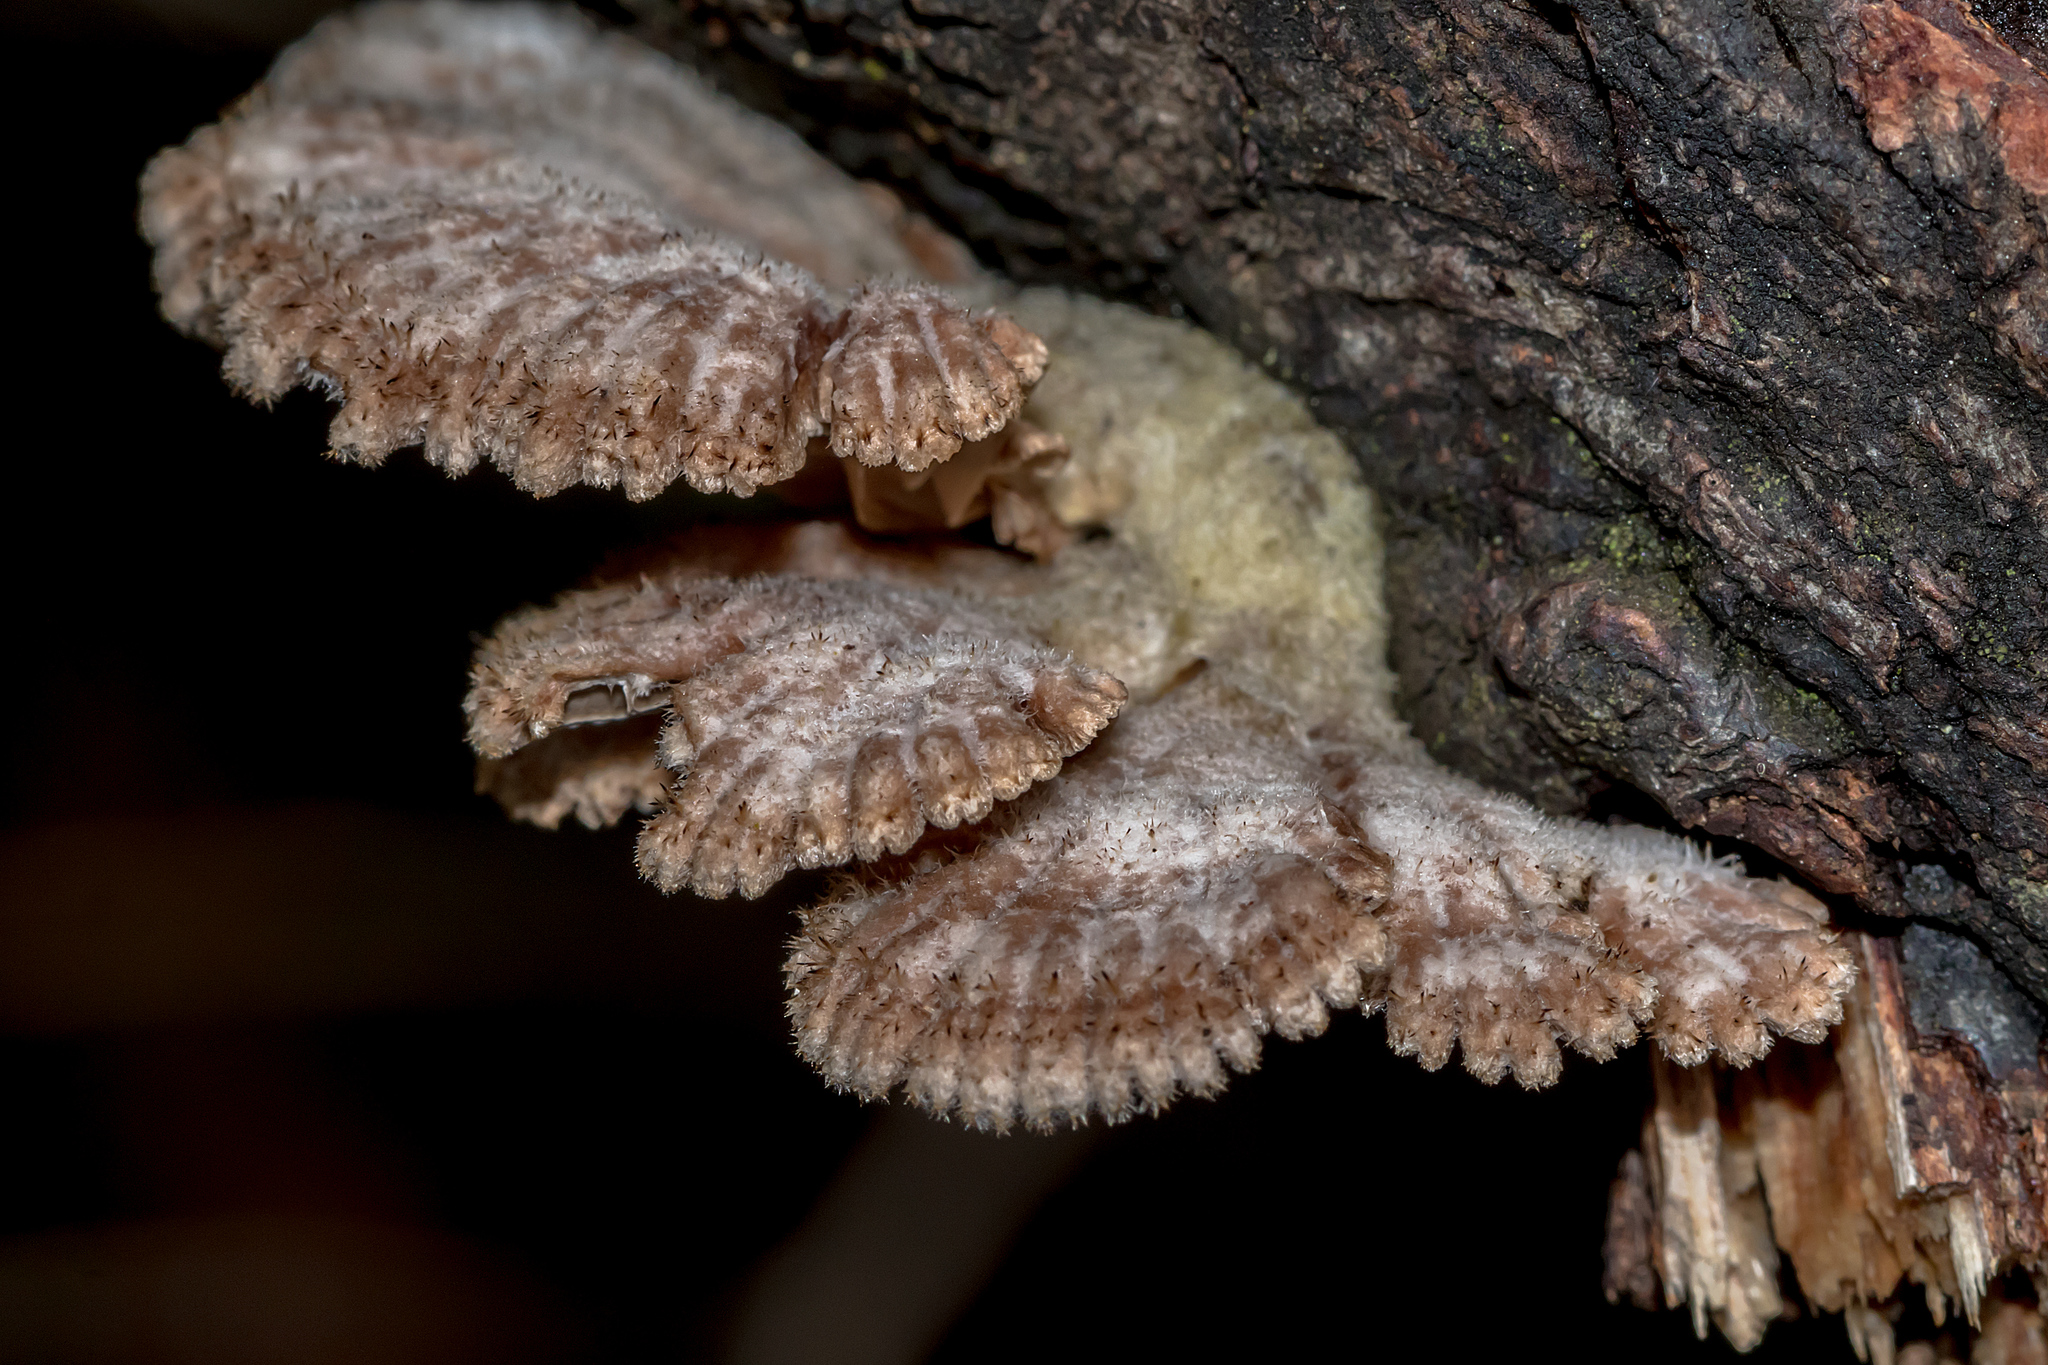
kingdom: Fungi
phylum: Basidiomycota
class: Agaricomycetes
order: Agaricales
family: Schizophyllaceae
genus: Schizophyllum
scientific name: Schizophyllum commune
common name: Common porecrust
